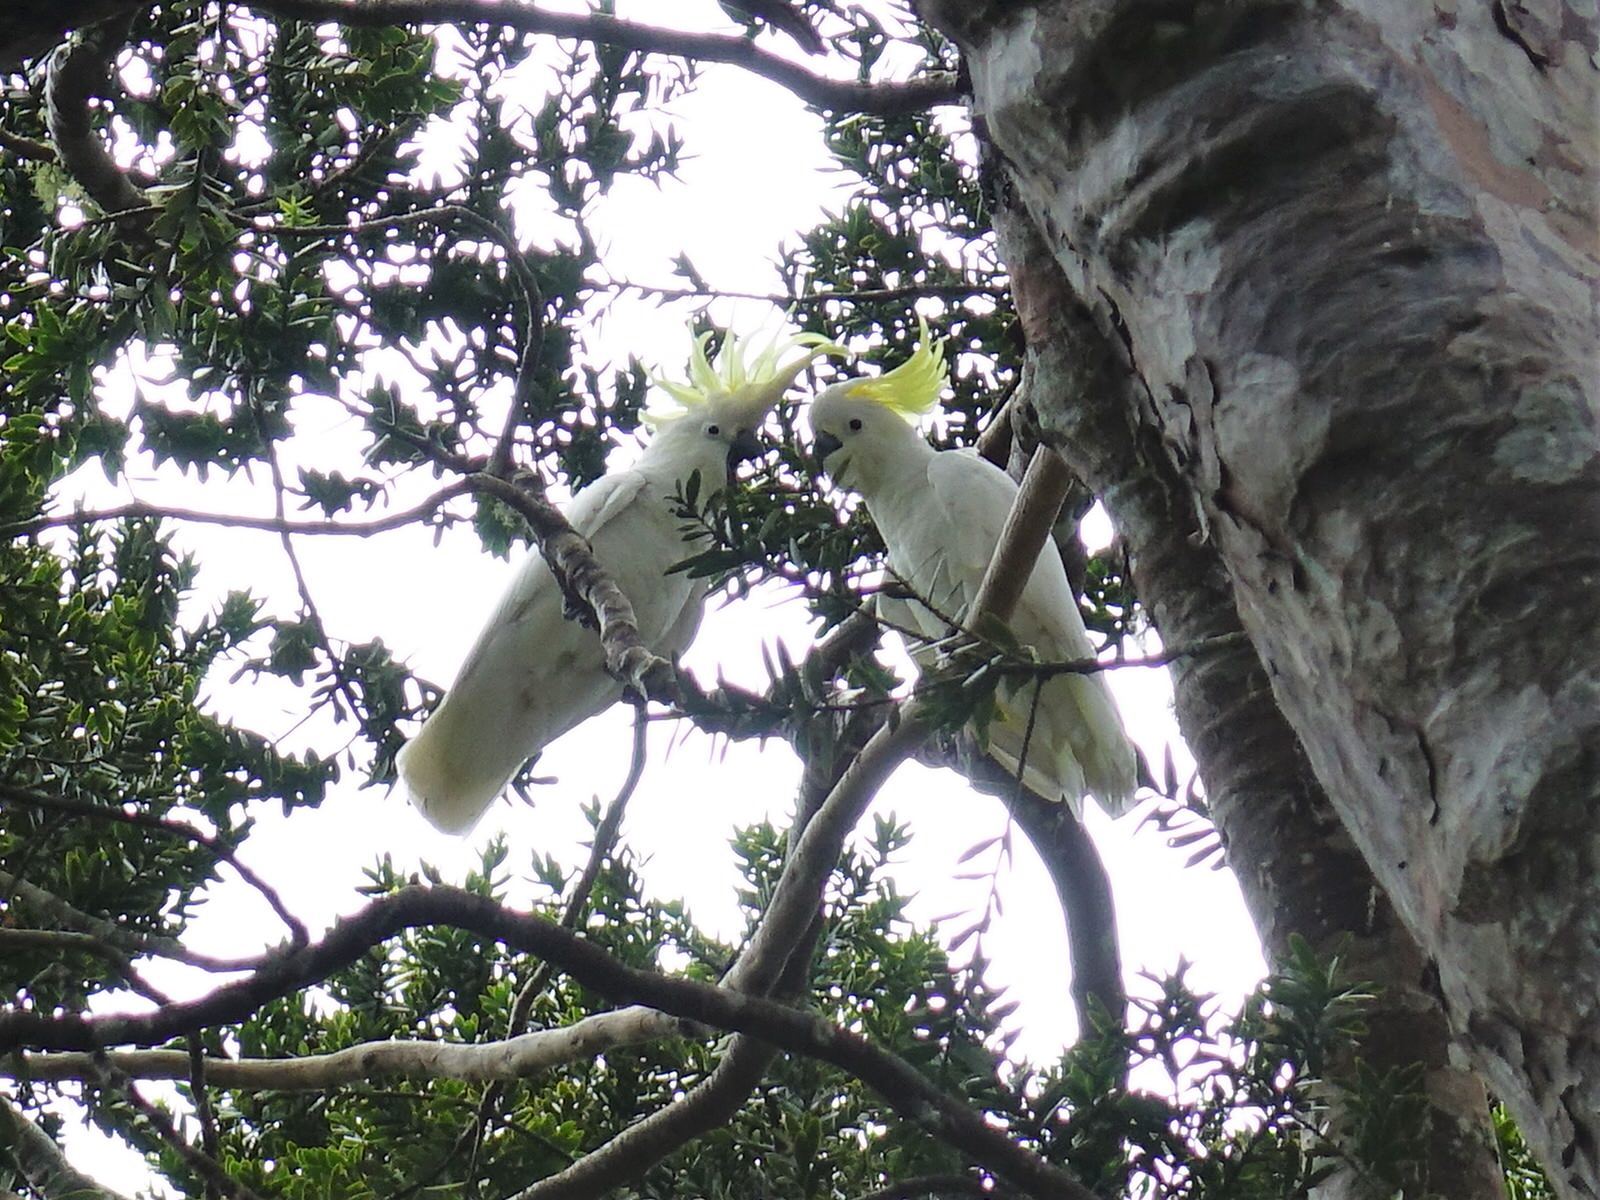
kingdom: Animalia
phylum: Chordata
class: Aves
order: Psittaciformes
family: Psittacidae
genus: Cacatua
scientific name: Cacatua galerita
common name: Sulphur-crested cockatoo
